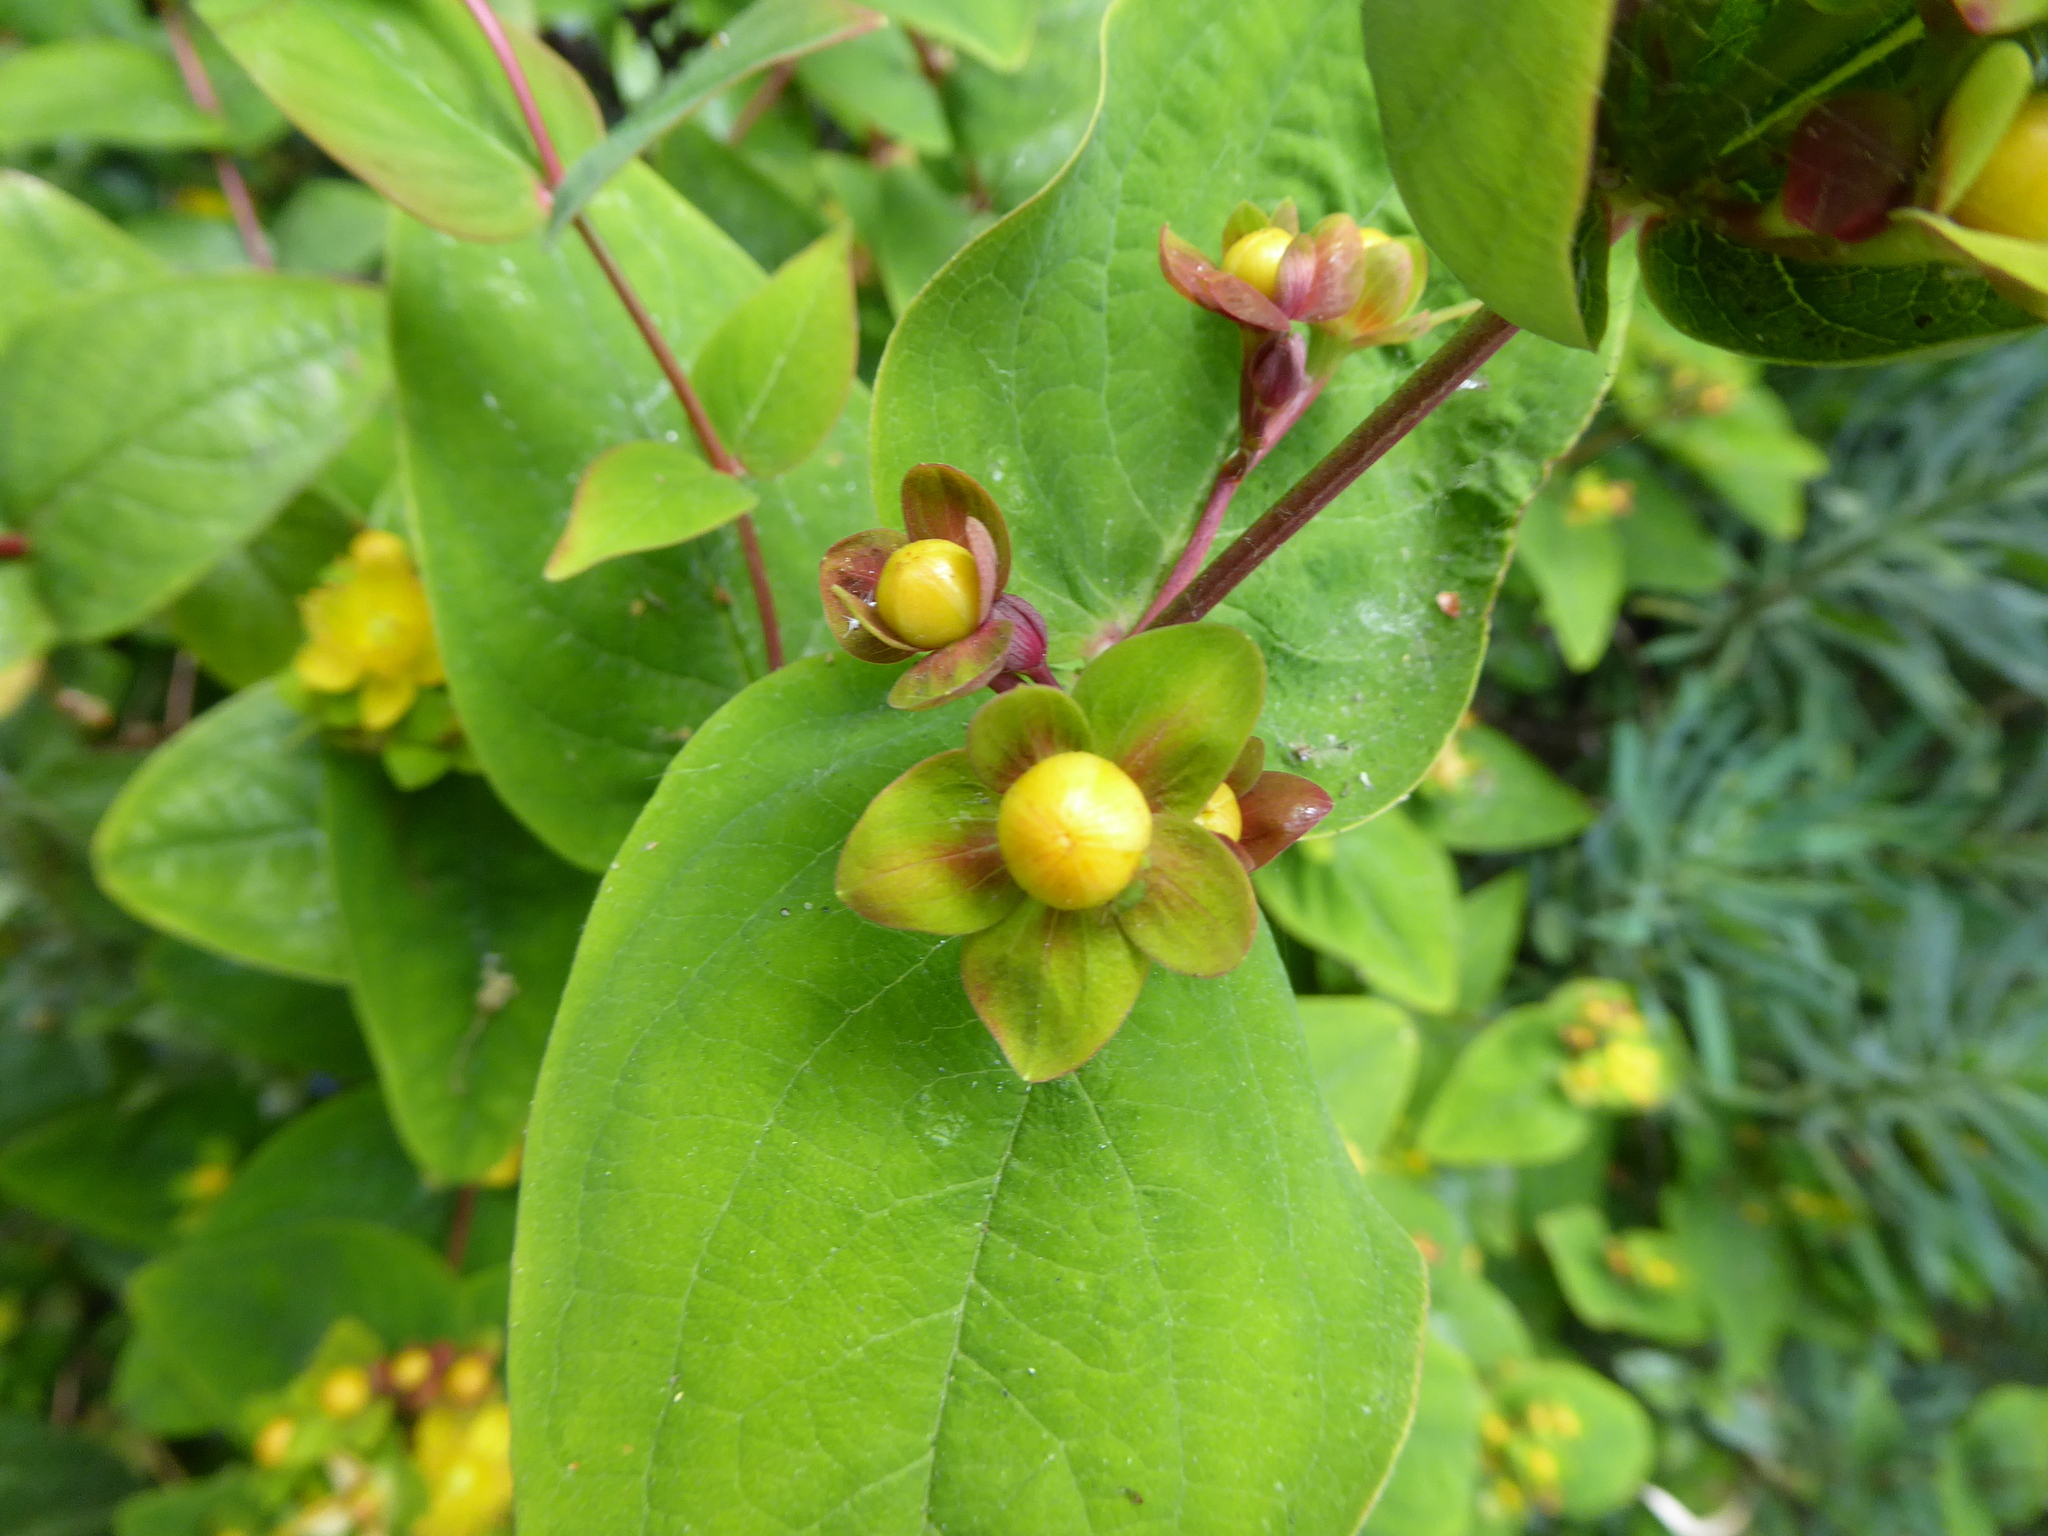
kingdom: Plantae
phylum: Tracheophyta
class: Magnoliopsida
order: Malpighiales
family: Hypericaceae
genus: Hypericum
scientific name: Hypericum androsaemum
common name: Sweet-amber
